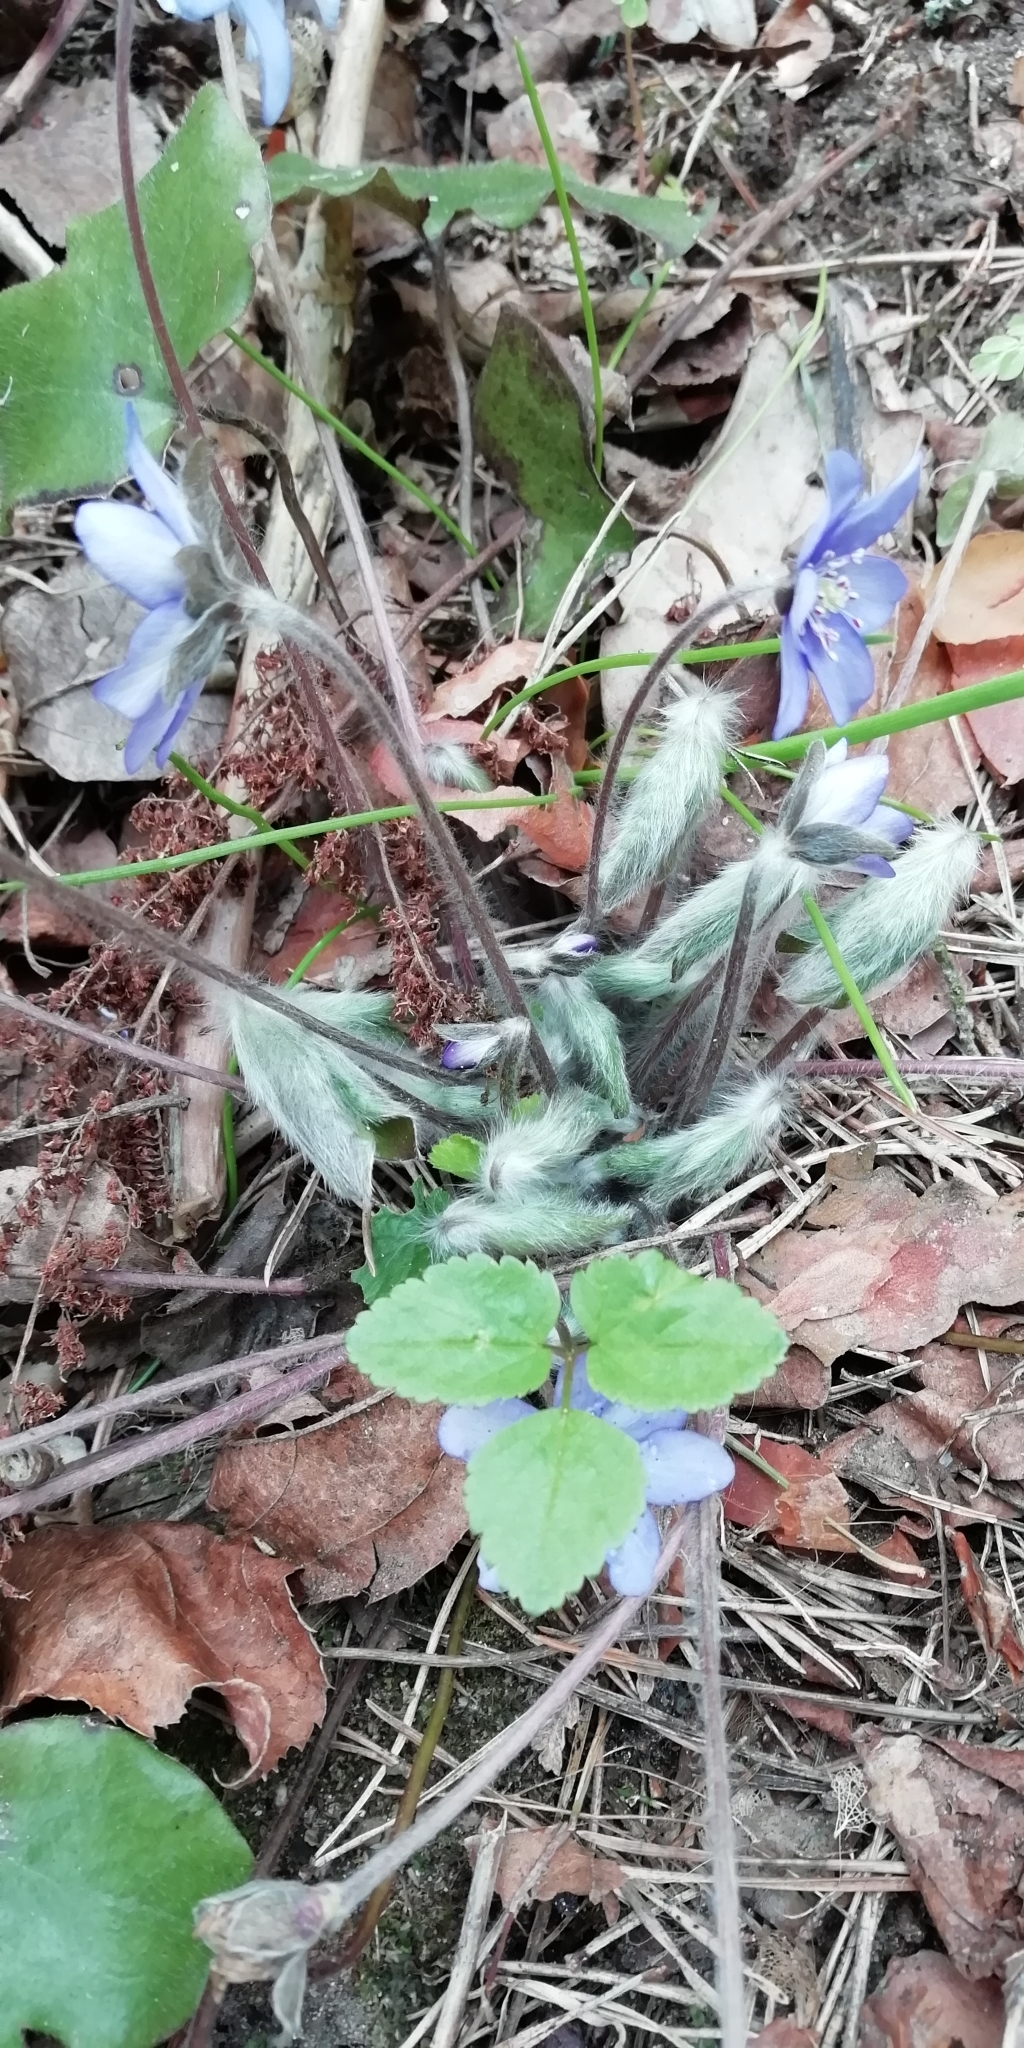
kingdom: Plantae
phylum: Tracheophyta
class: Magnoliopsida
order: Ranunculales
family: Ranunculaceae
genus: Hepatica
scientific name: Hepatica nobilis
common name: Liverleaf
